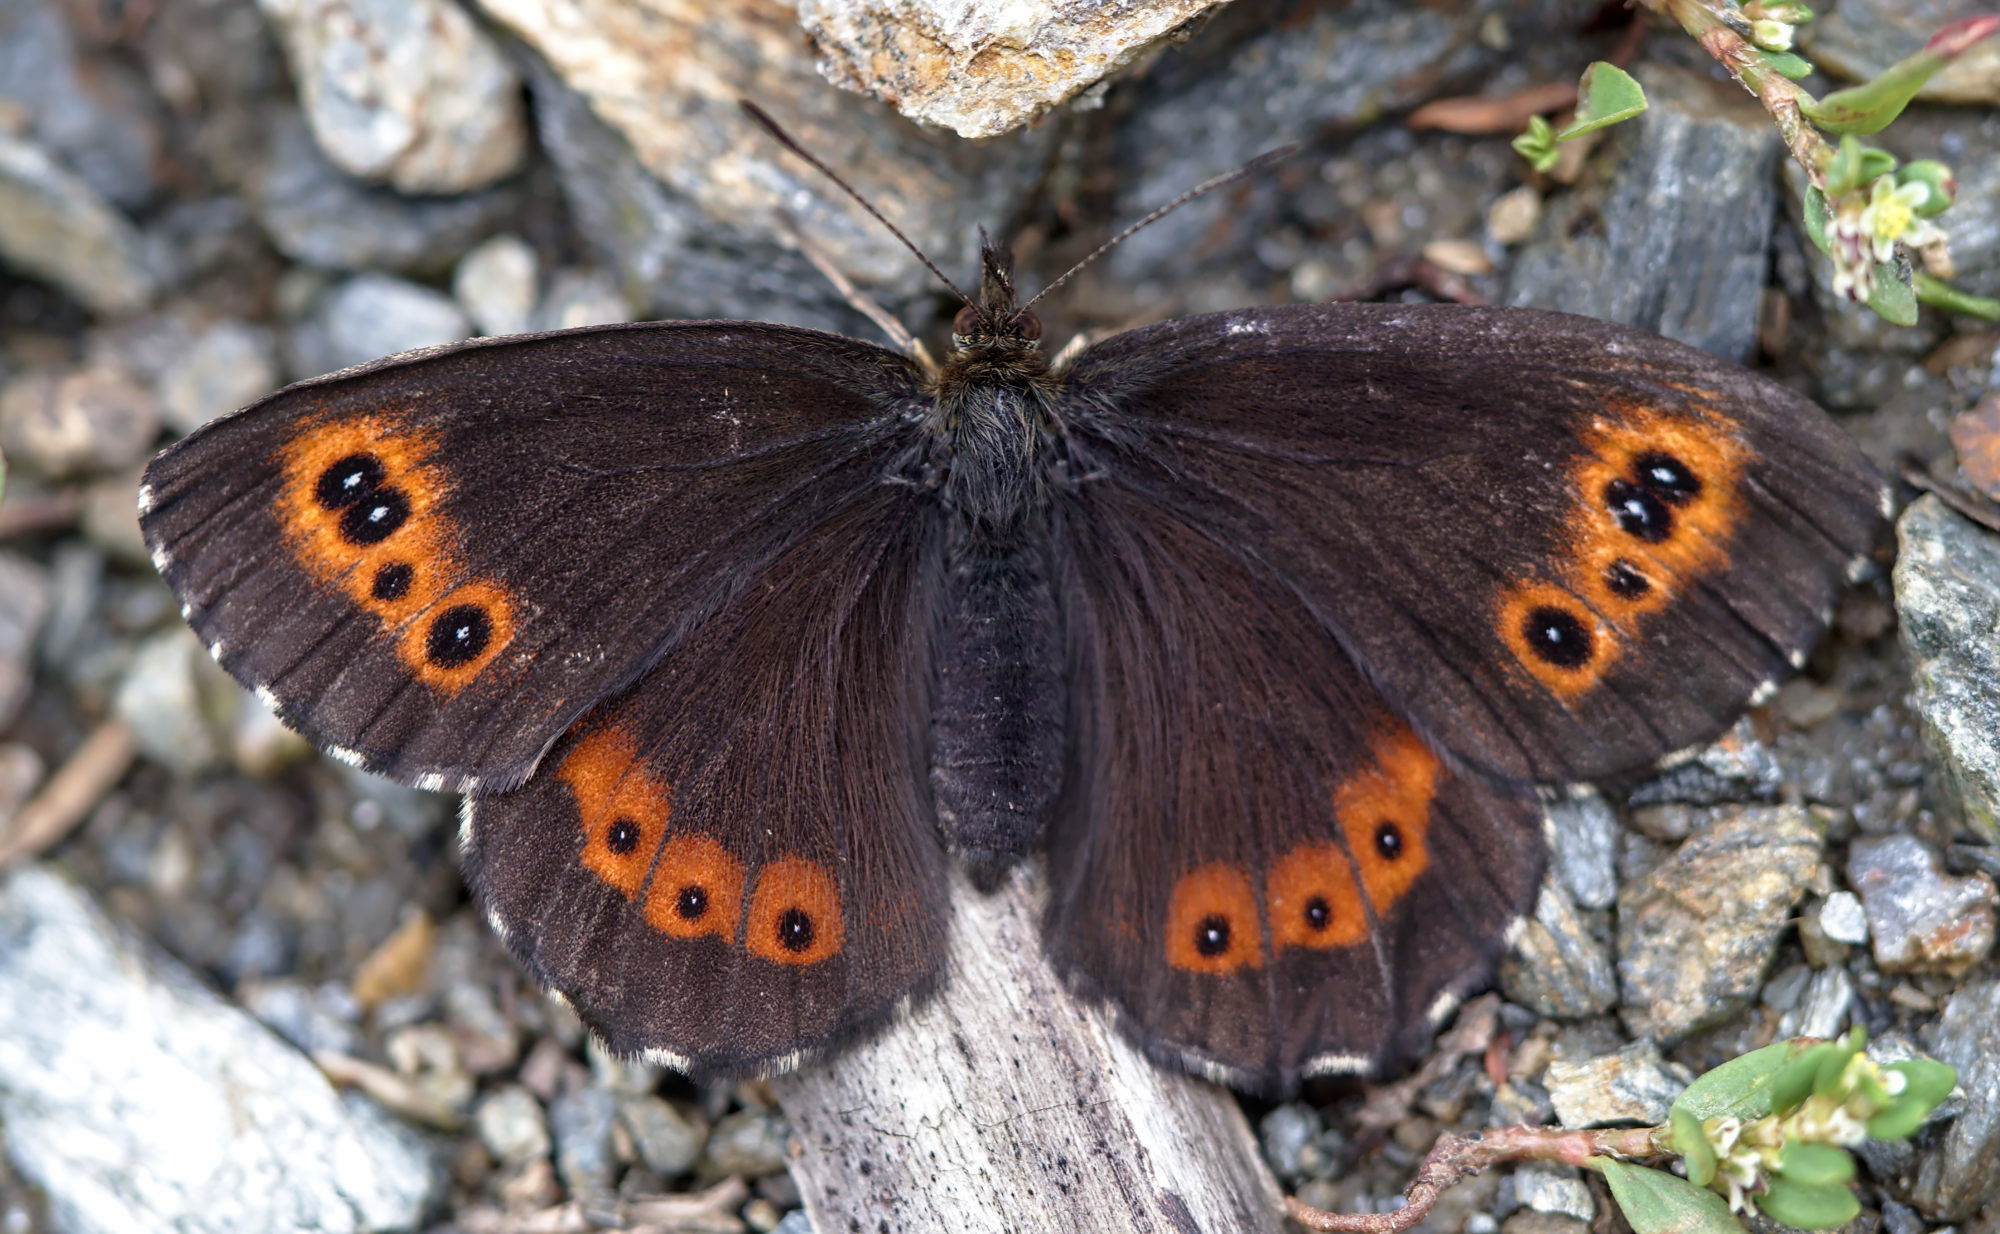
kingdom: Animalia
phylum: Arthropoda
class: Insecta
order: Lepidoptera
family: Nymphalidae
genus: Erebia
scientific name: Erebia ligea
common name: Arran brown
